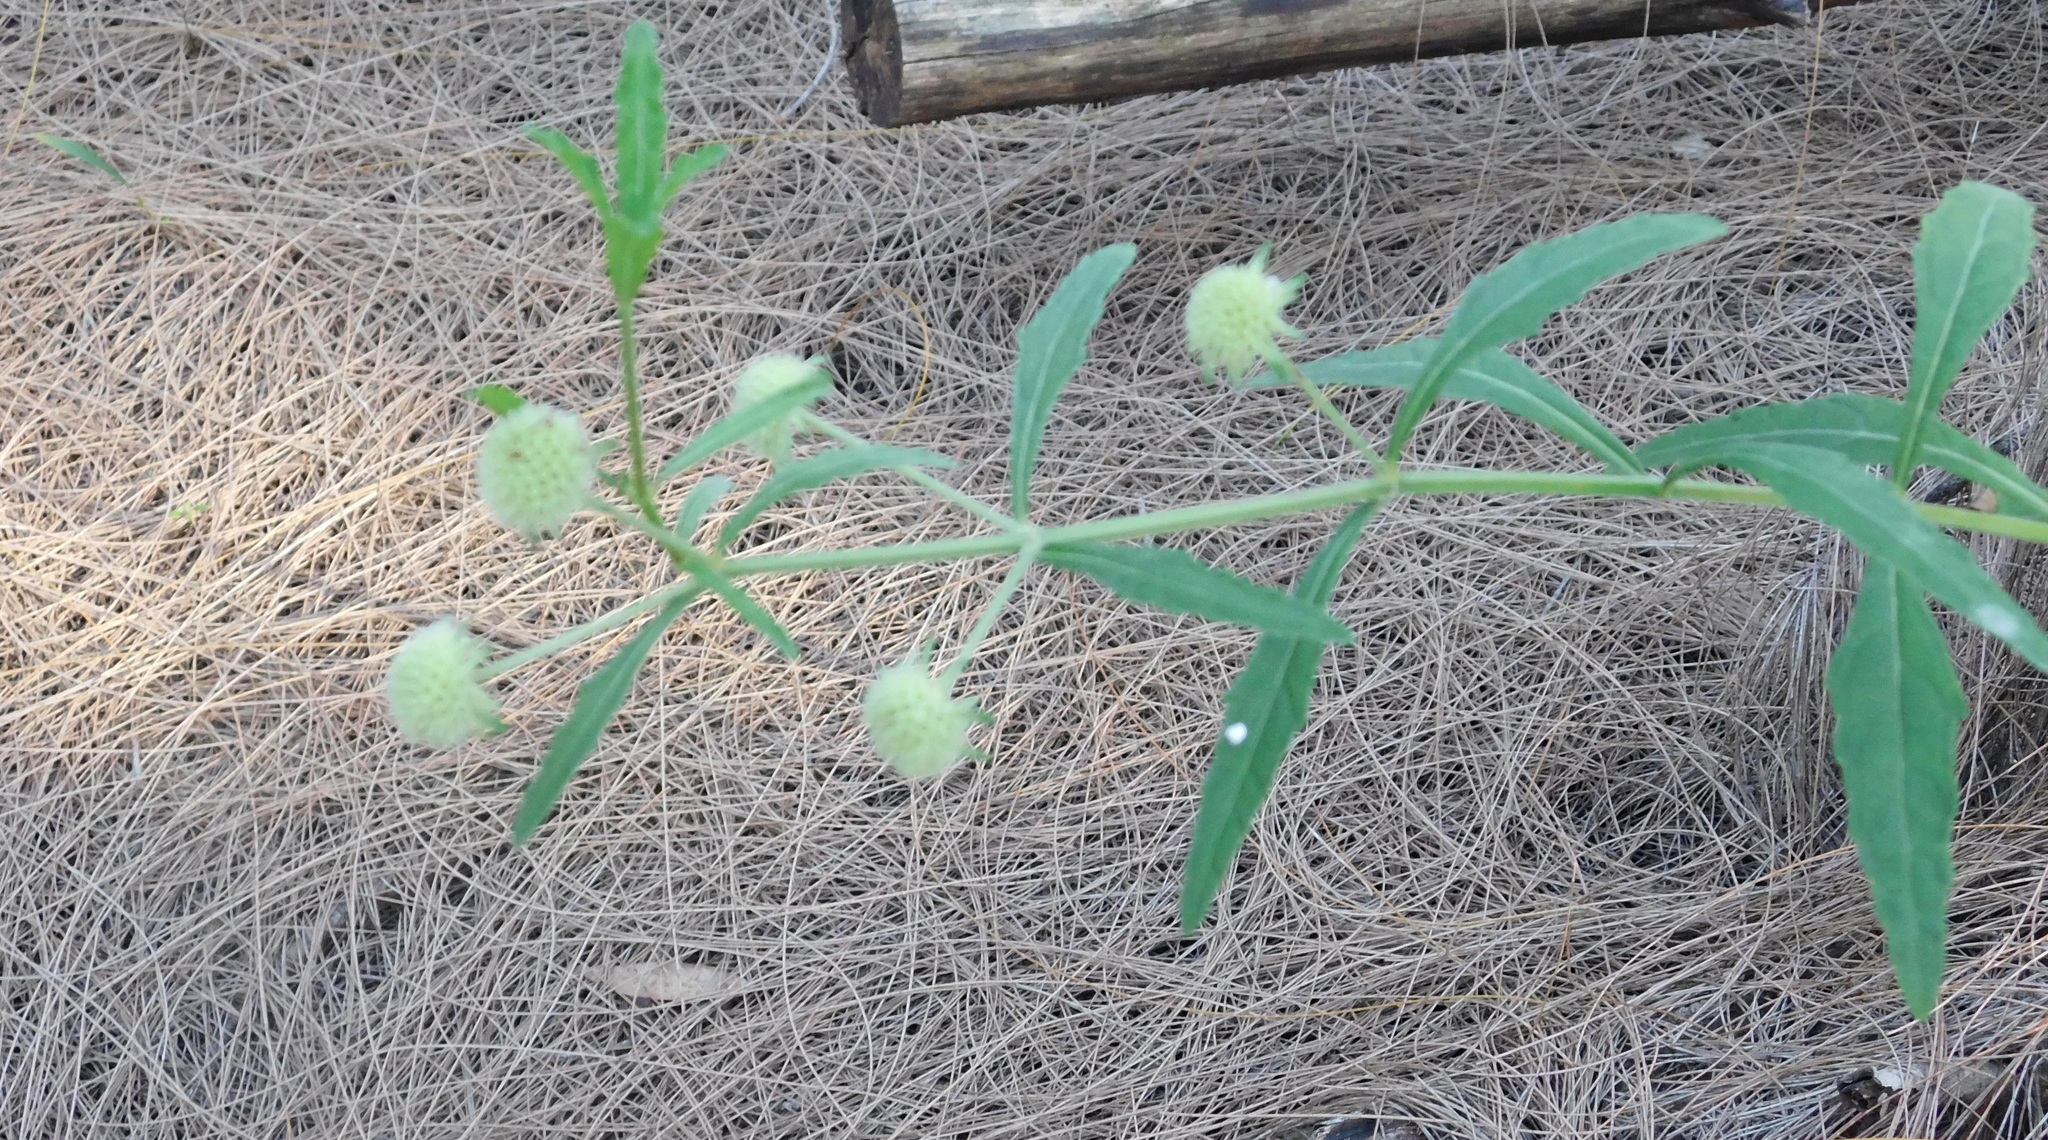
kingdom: Plantae
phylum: Tracheophyta
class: Magnoliopsida
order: Lamiales
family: Lamiaceae
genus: Hyptis
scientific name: Hyptis alata
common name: Cluster bush-mint
